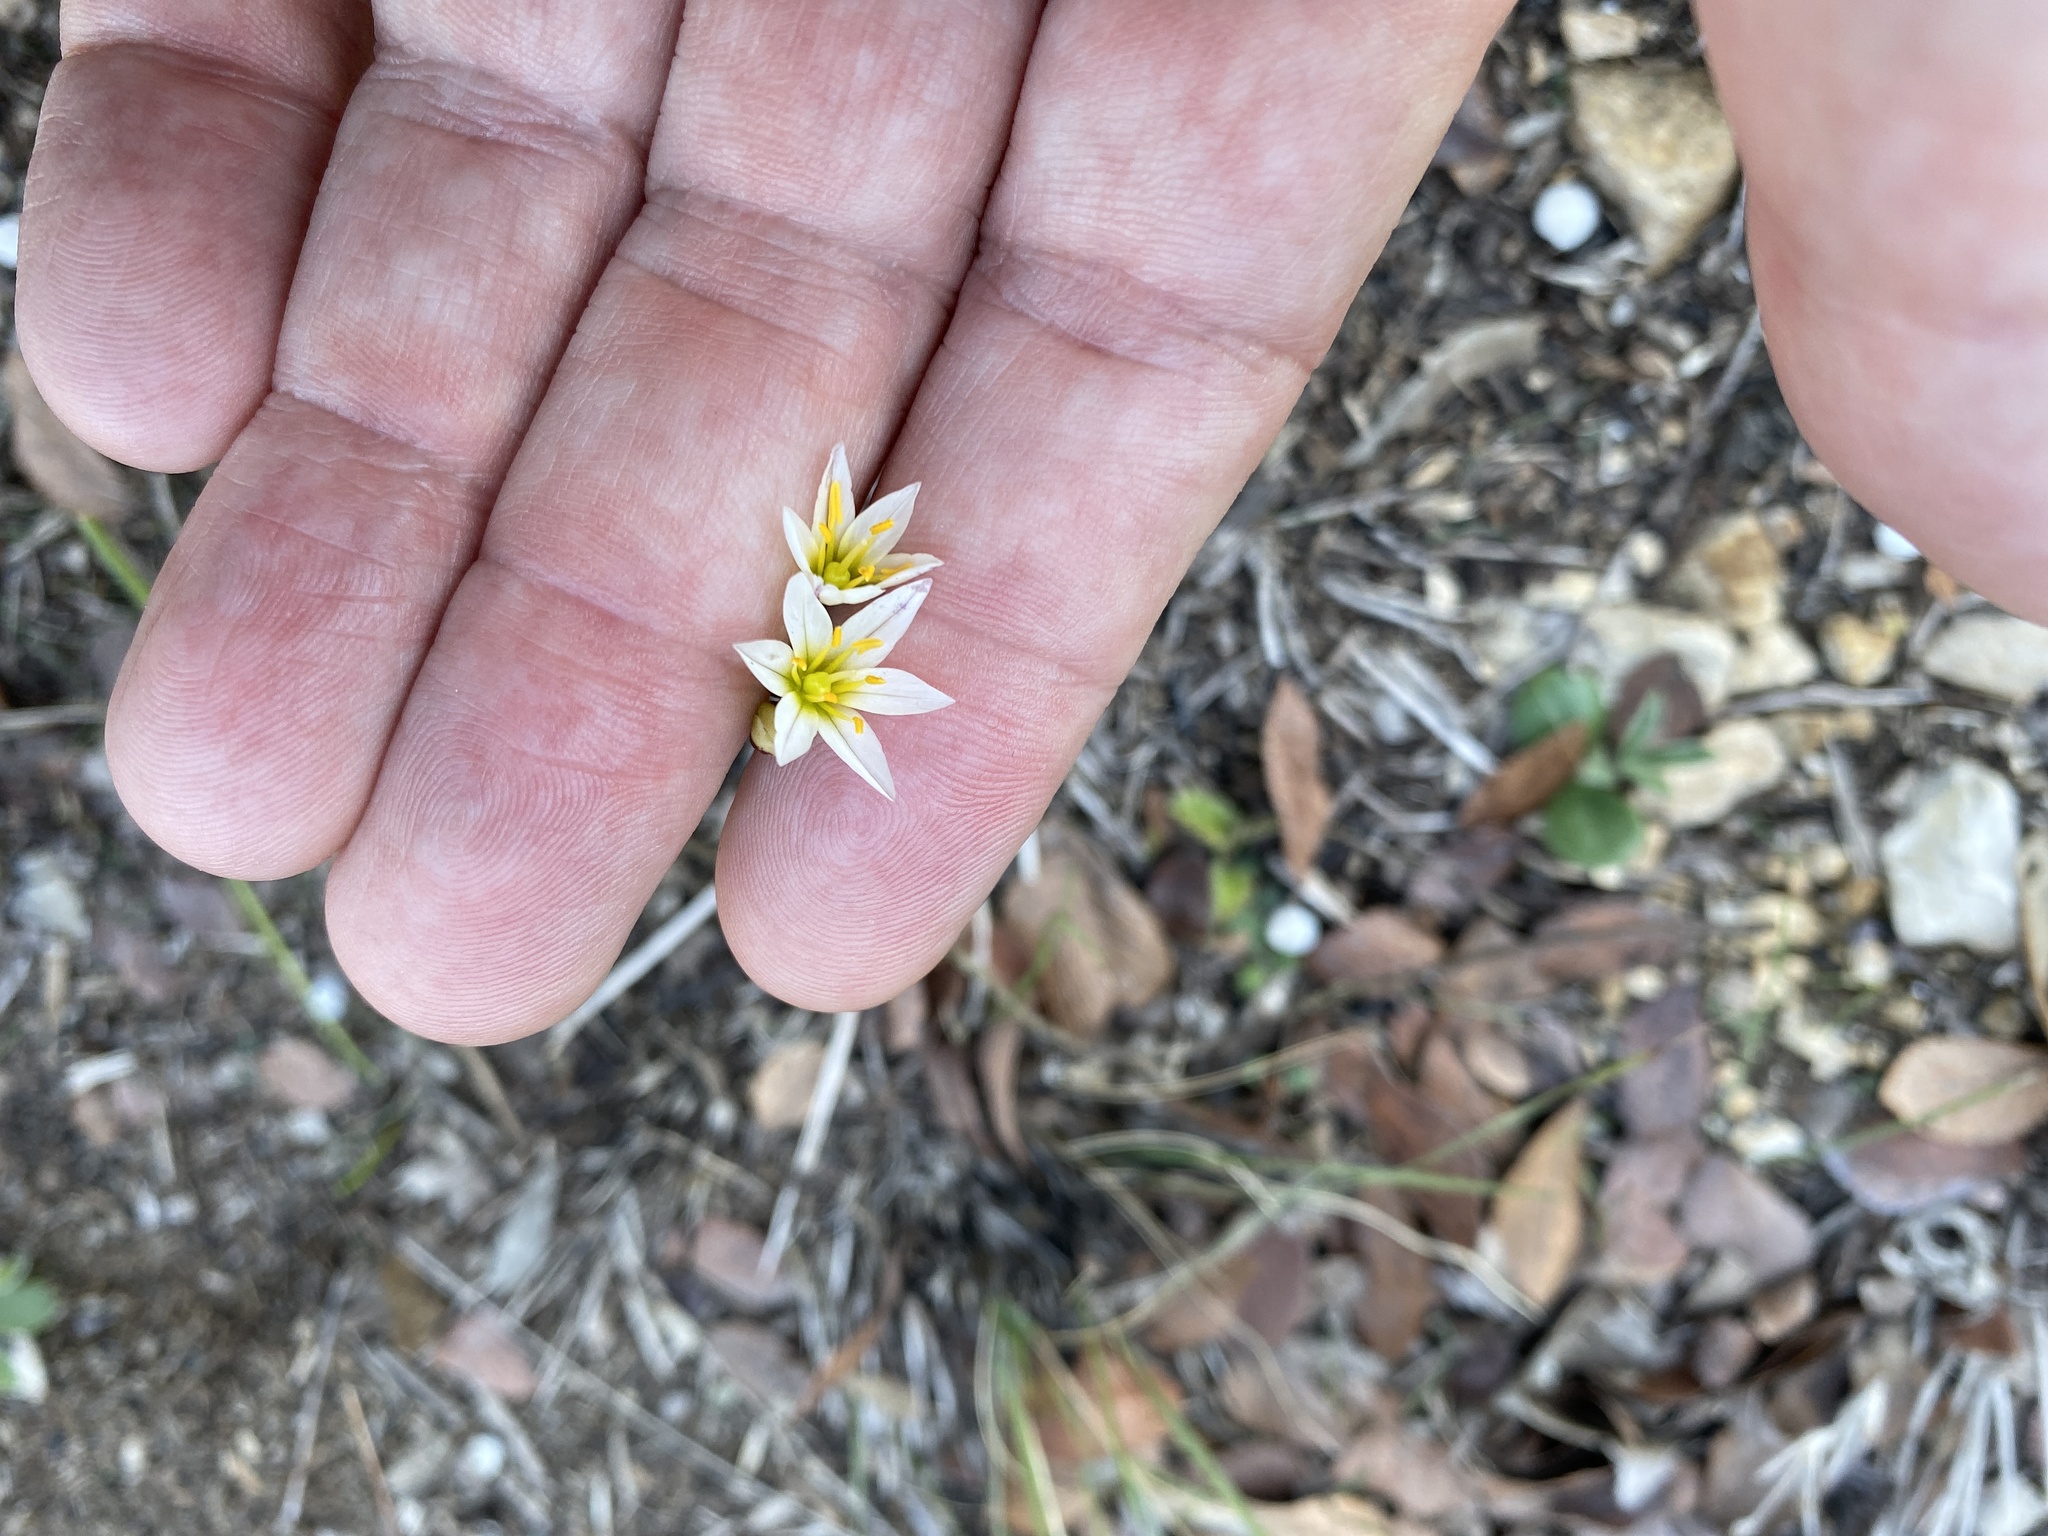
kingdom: Plantae
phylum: Tracheophyta
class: Liliopsida
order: Asparagales
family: Amaryllidaceae
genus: Nothoscordum
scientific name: Nothoscordum bivalve
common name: Crow-poison
